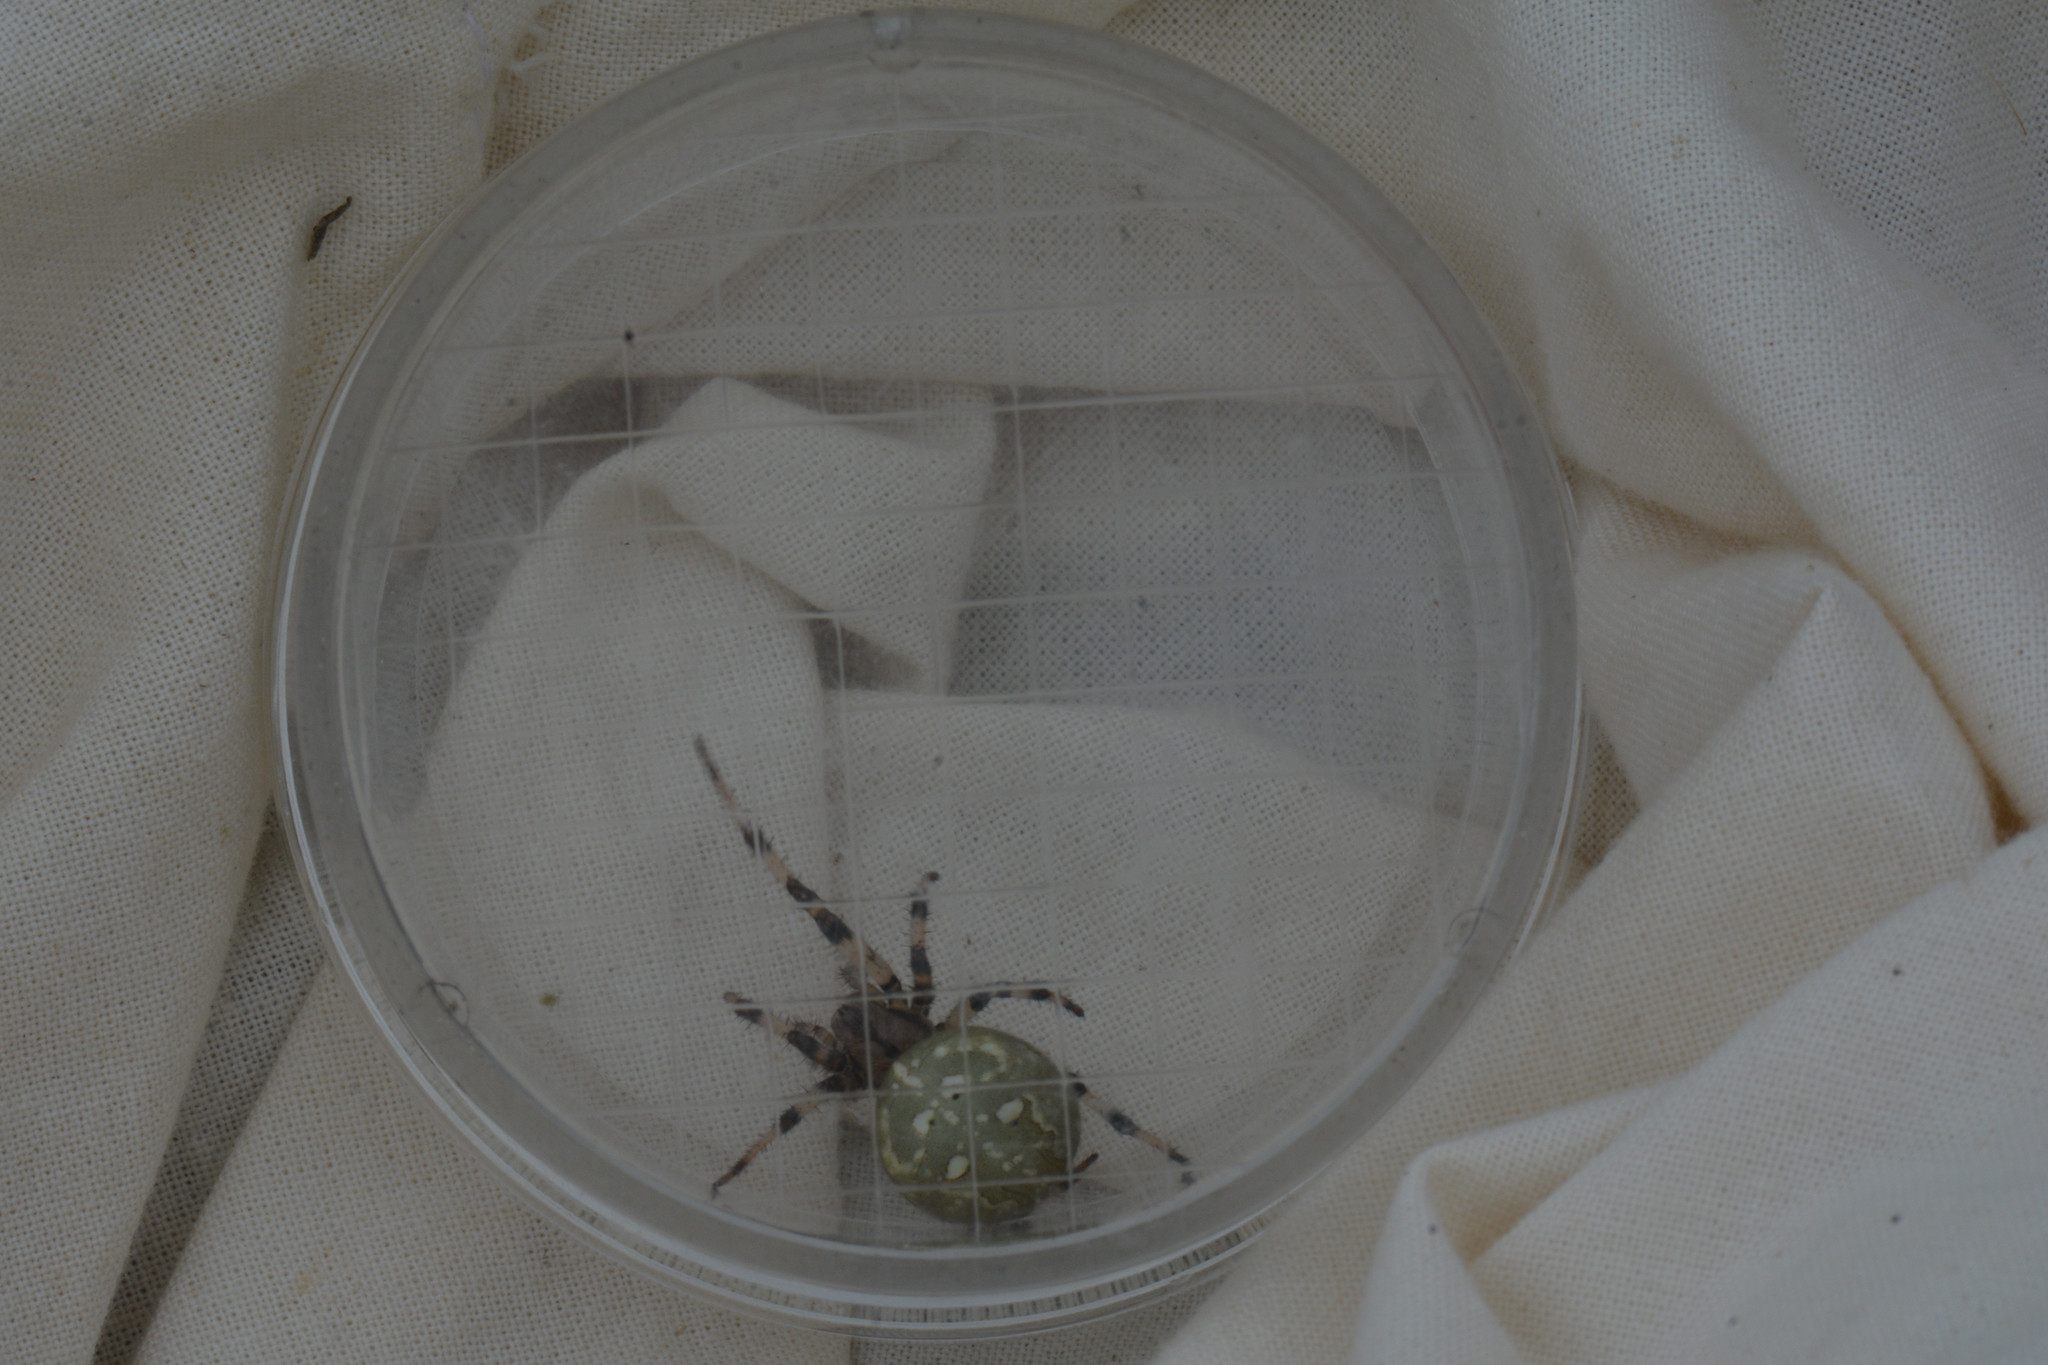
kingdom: Animalia
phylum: Arthropoda
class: Arachnida
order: Araneae
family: Araneidae
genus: Araneus
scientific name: Araneus quadratus
